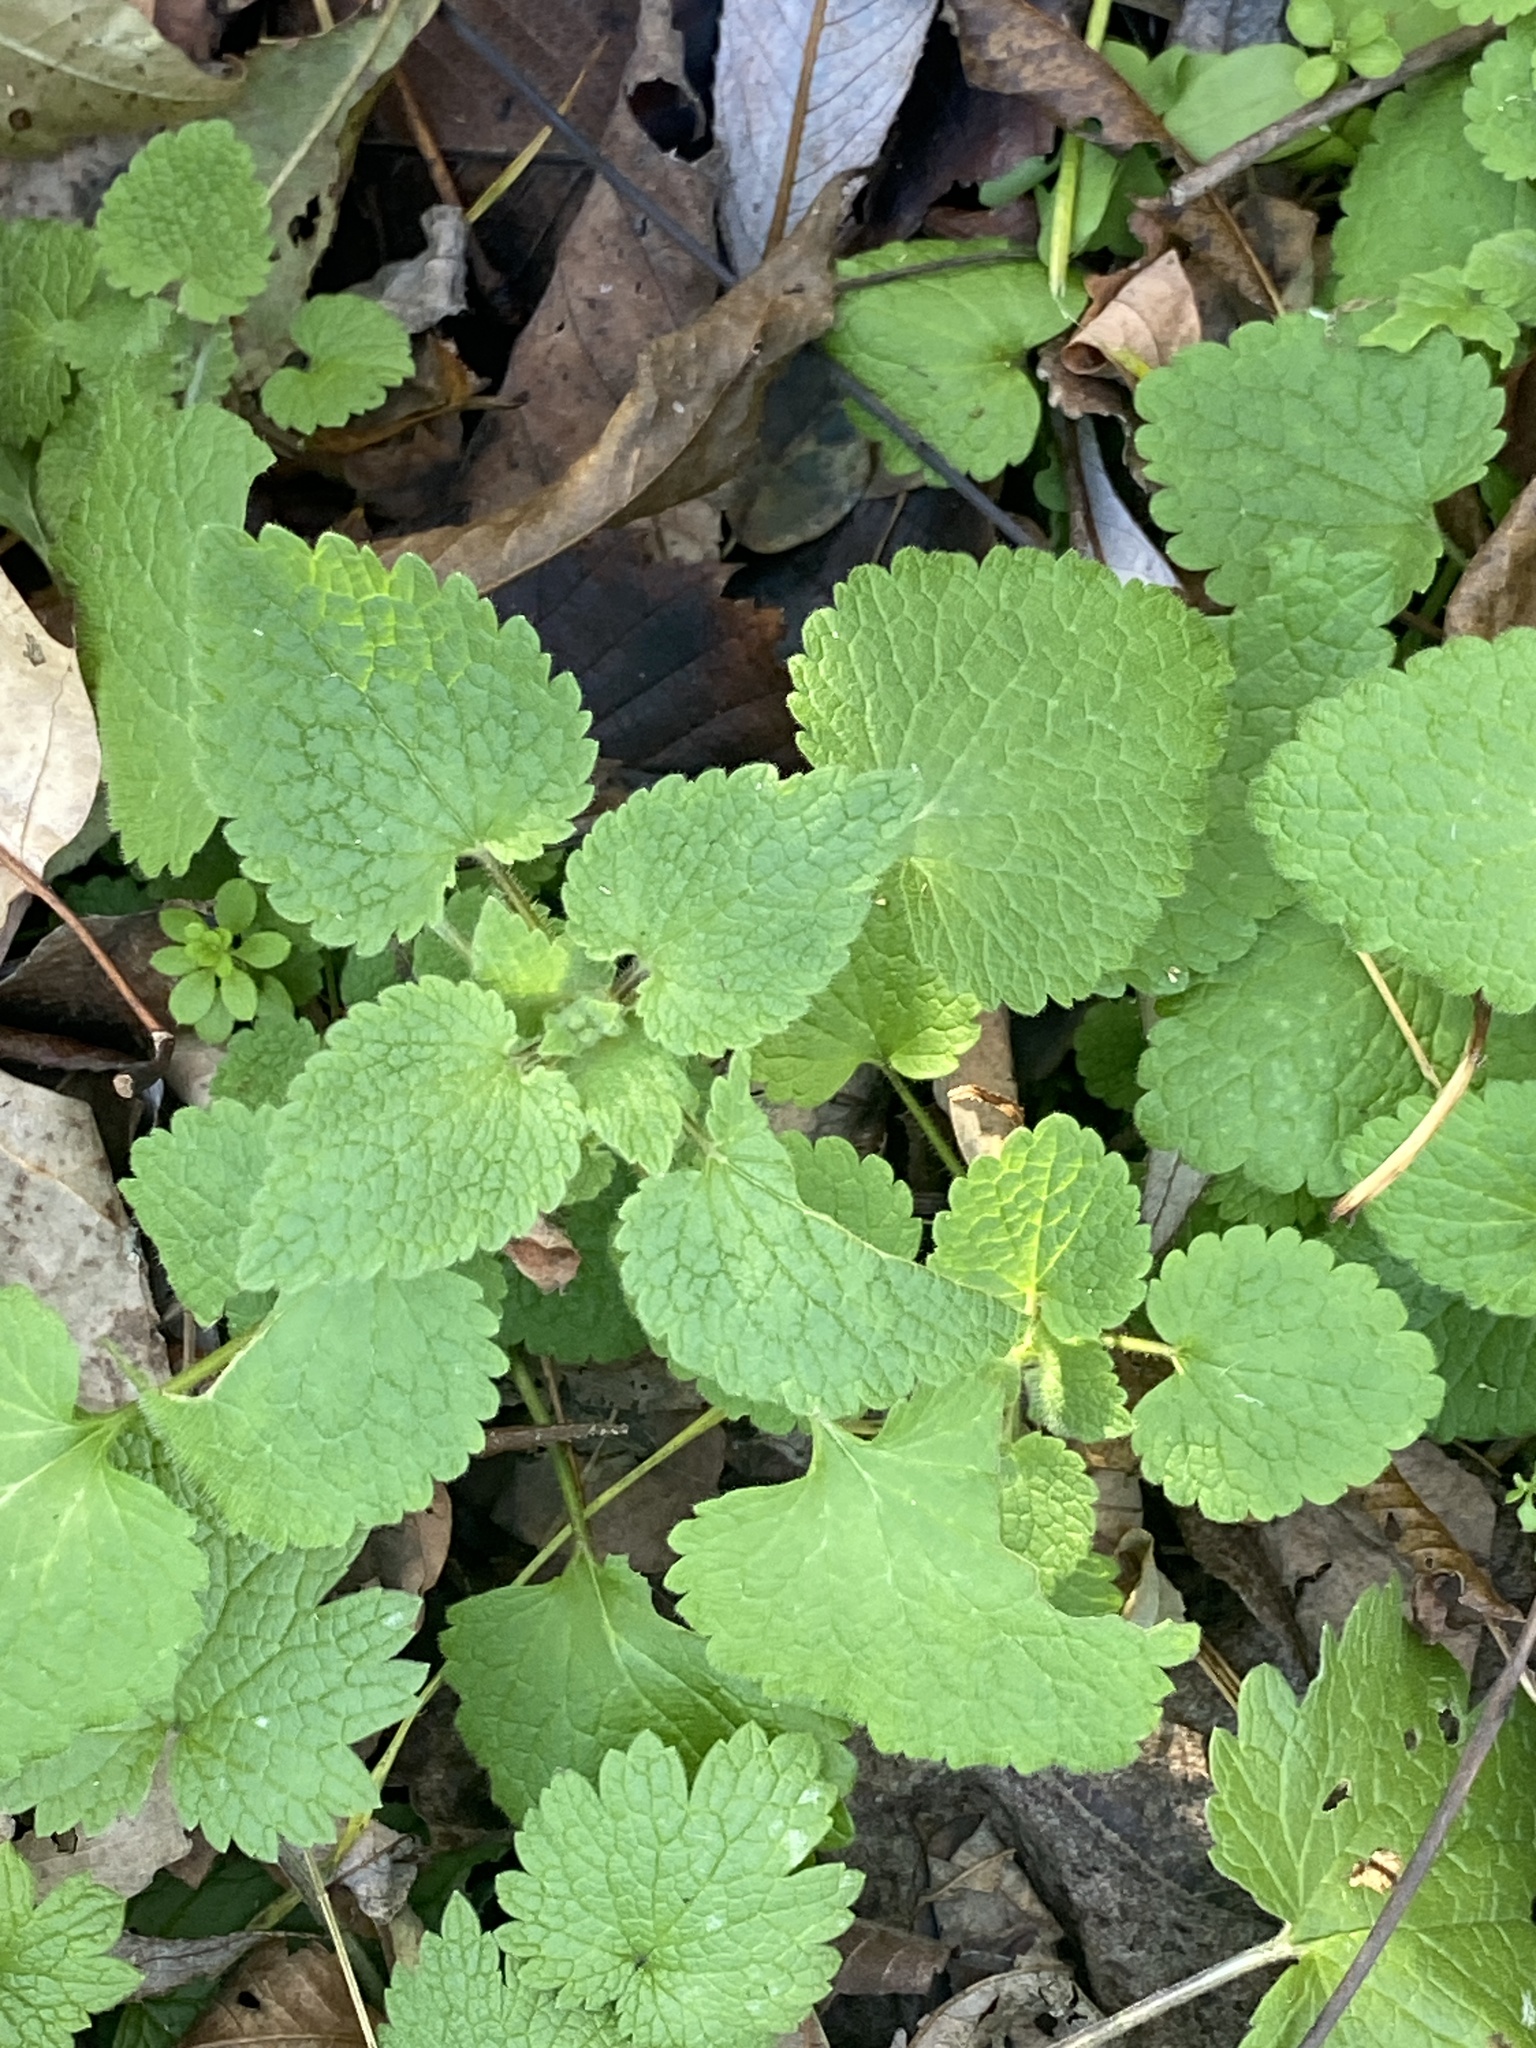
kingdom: Plantae
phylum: Tracheophyta
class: Magnoliopsida
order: Lamiales
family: Lamiaceae
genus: Lamium
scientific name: Lamium purpureum
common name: Red dead-nettle
